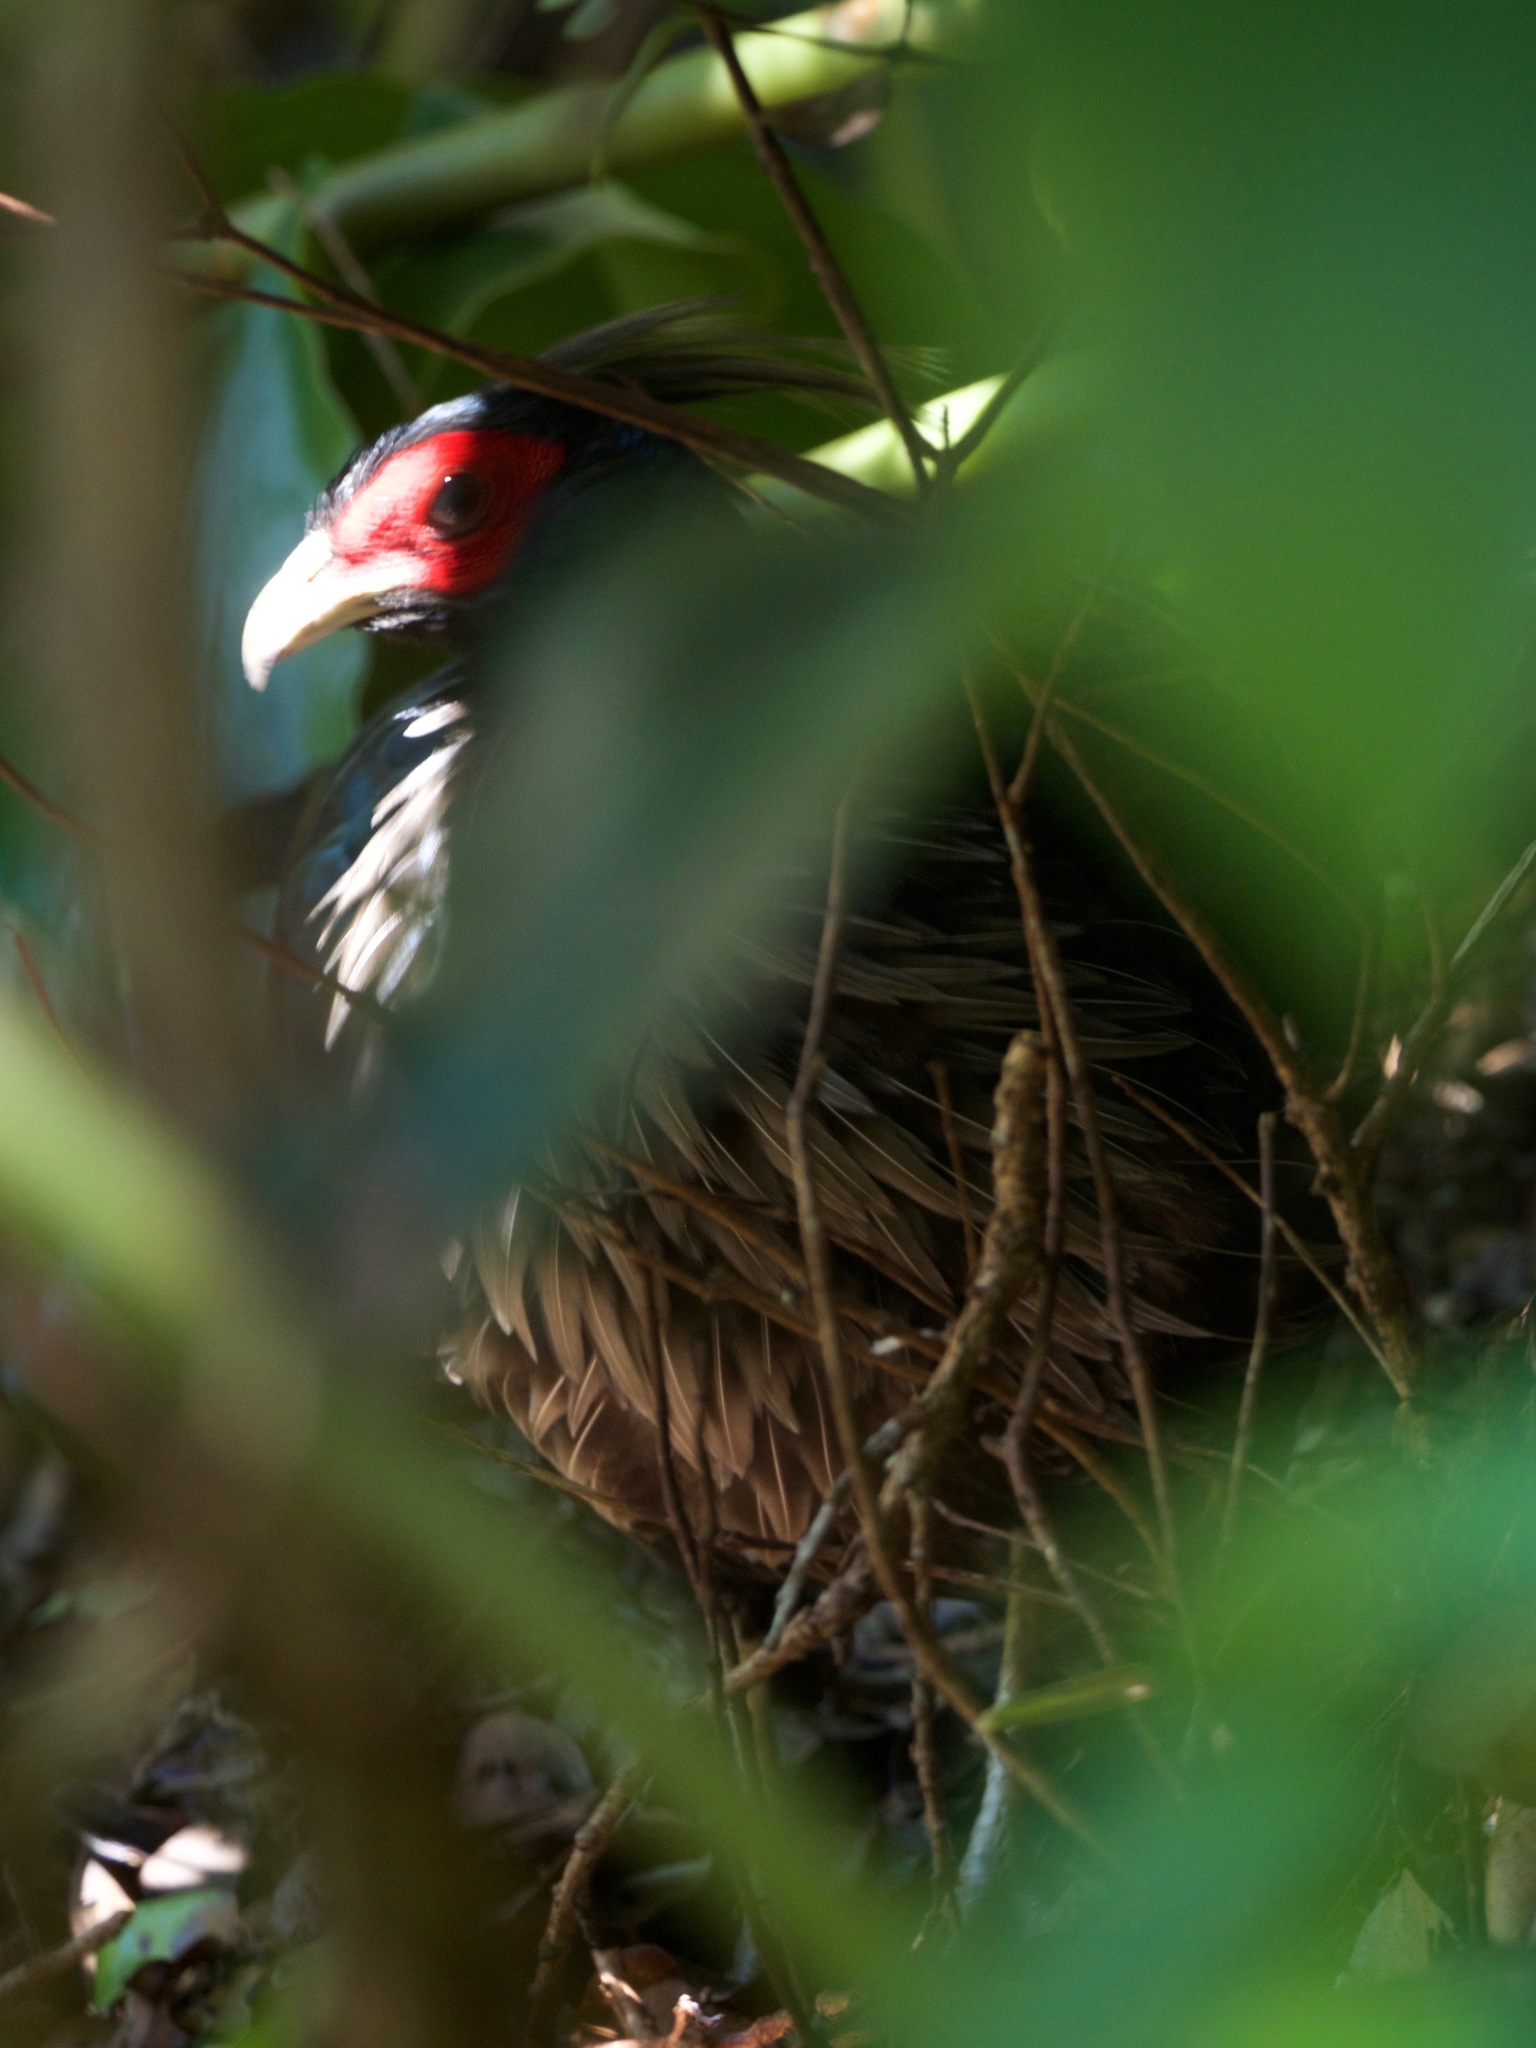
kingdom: Animalia
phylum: Chordata
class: Aves
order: Galliformes
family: Phasianidae
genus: Lophura
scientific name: Lophura leucomelanos
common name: Kalij pheasant
